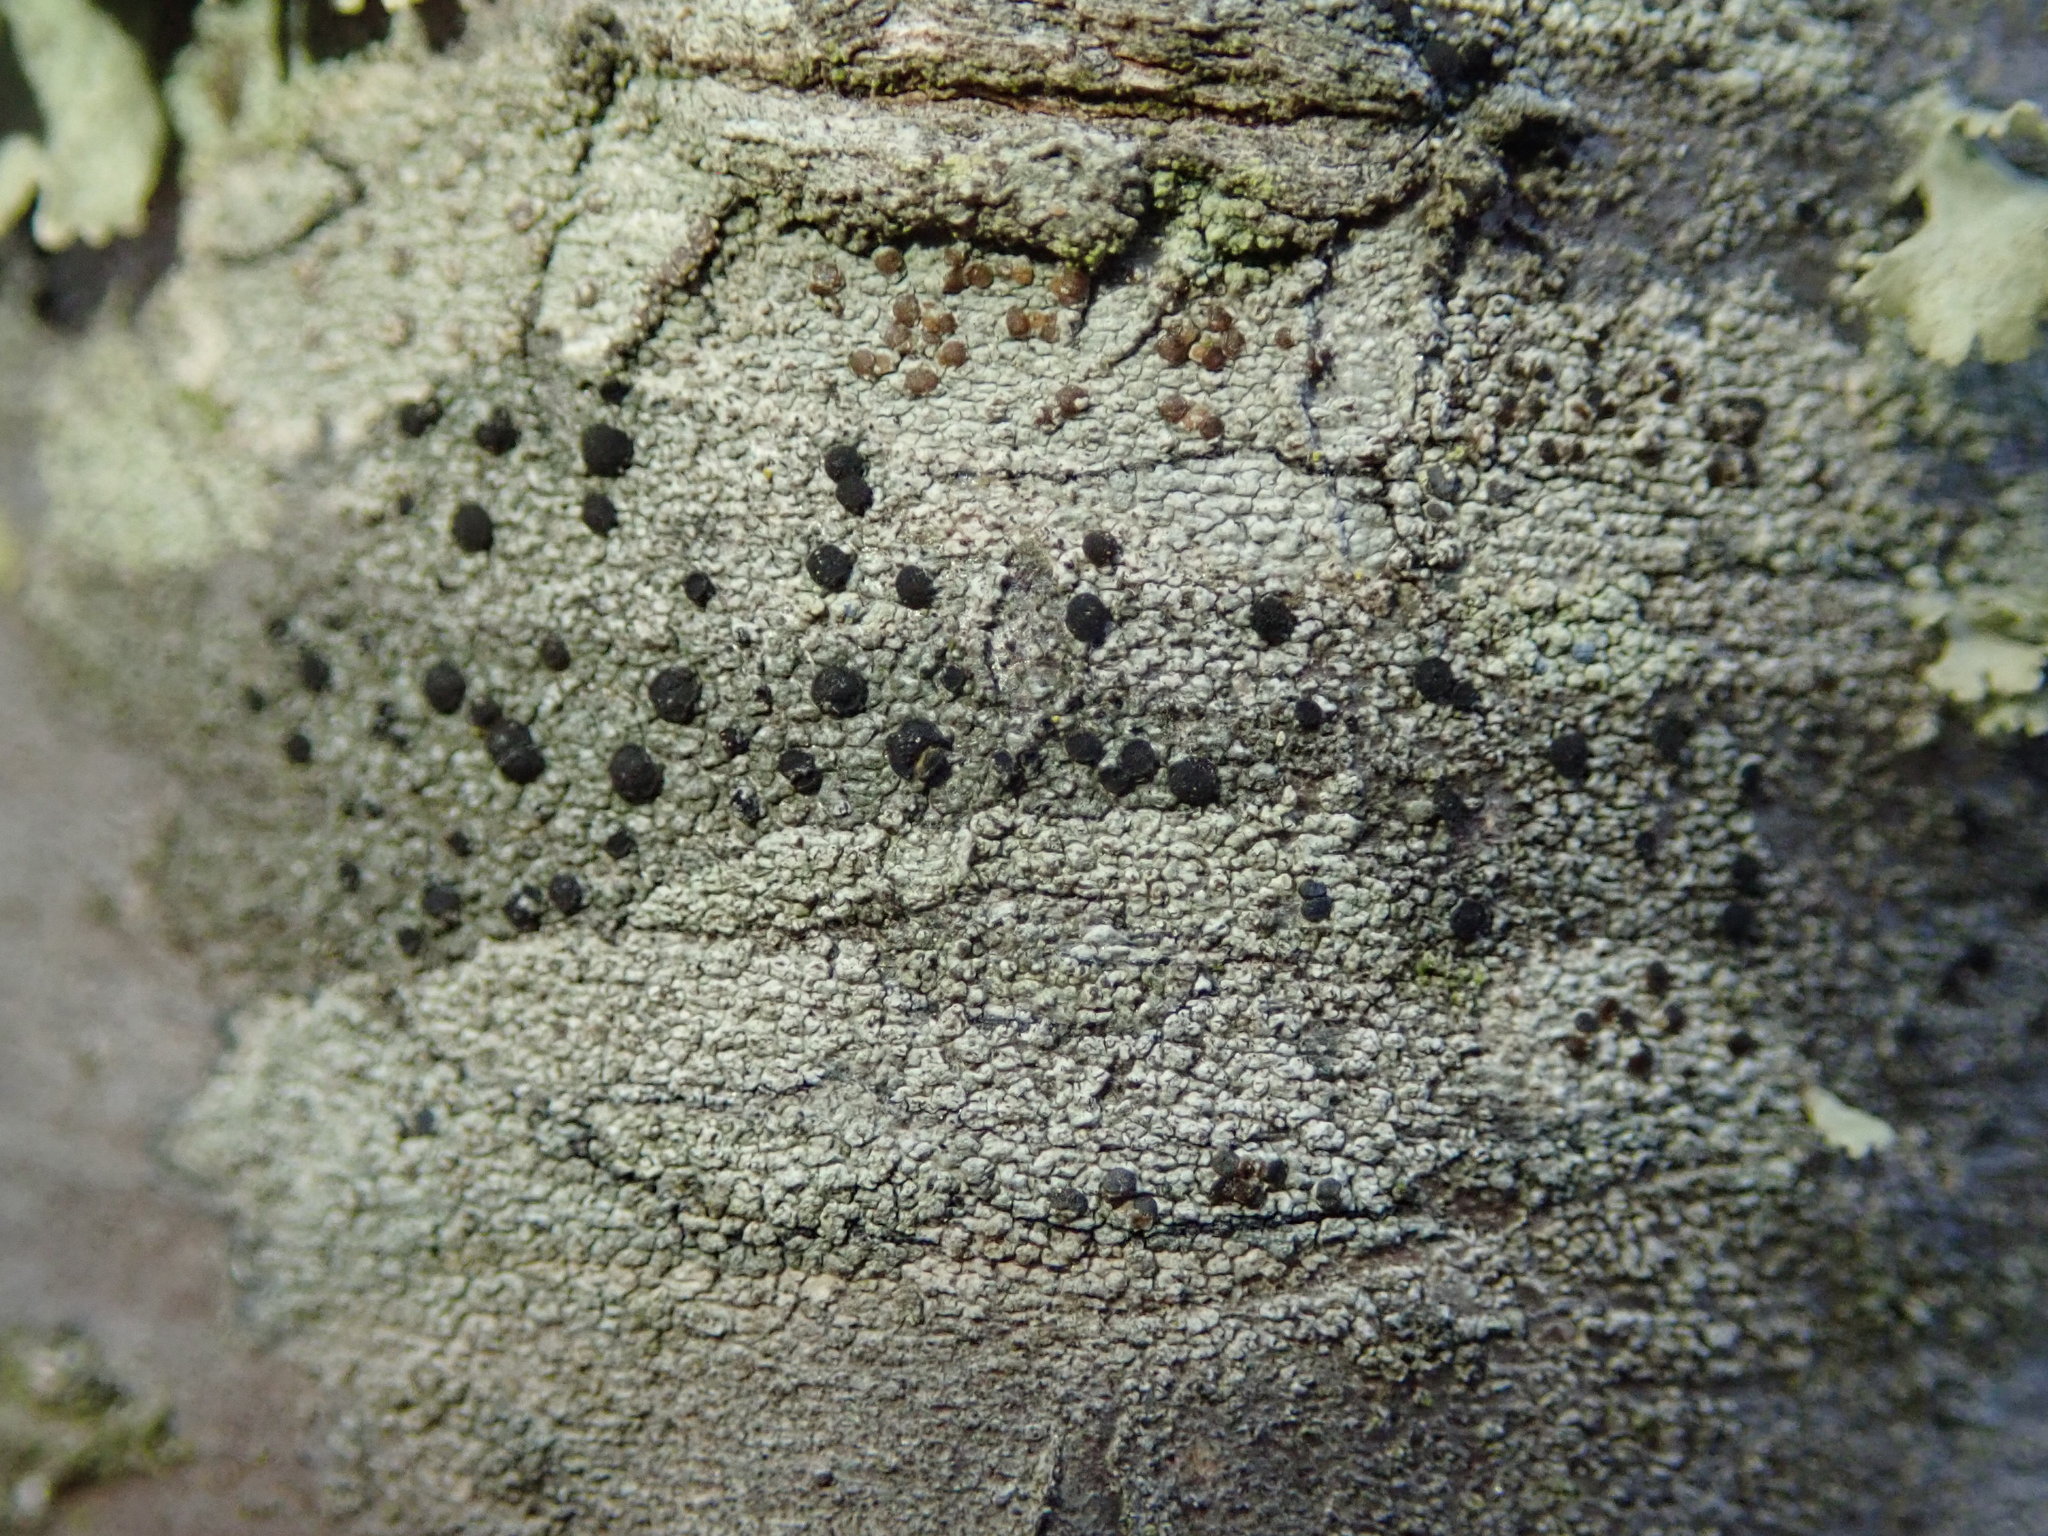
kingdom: Fungi
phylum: Ascomycota
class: Lecanoromycetes
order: Lecanorales
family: Lecanoraceae
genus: Traponora
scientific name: Traponora varians
